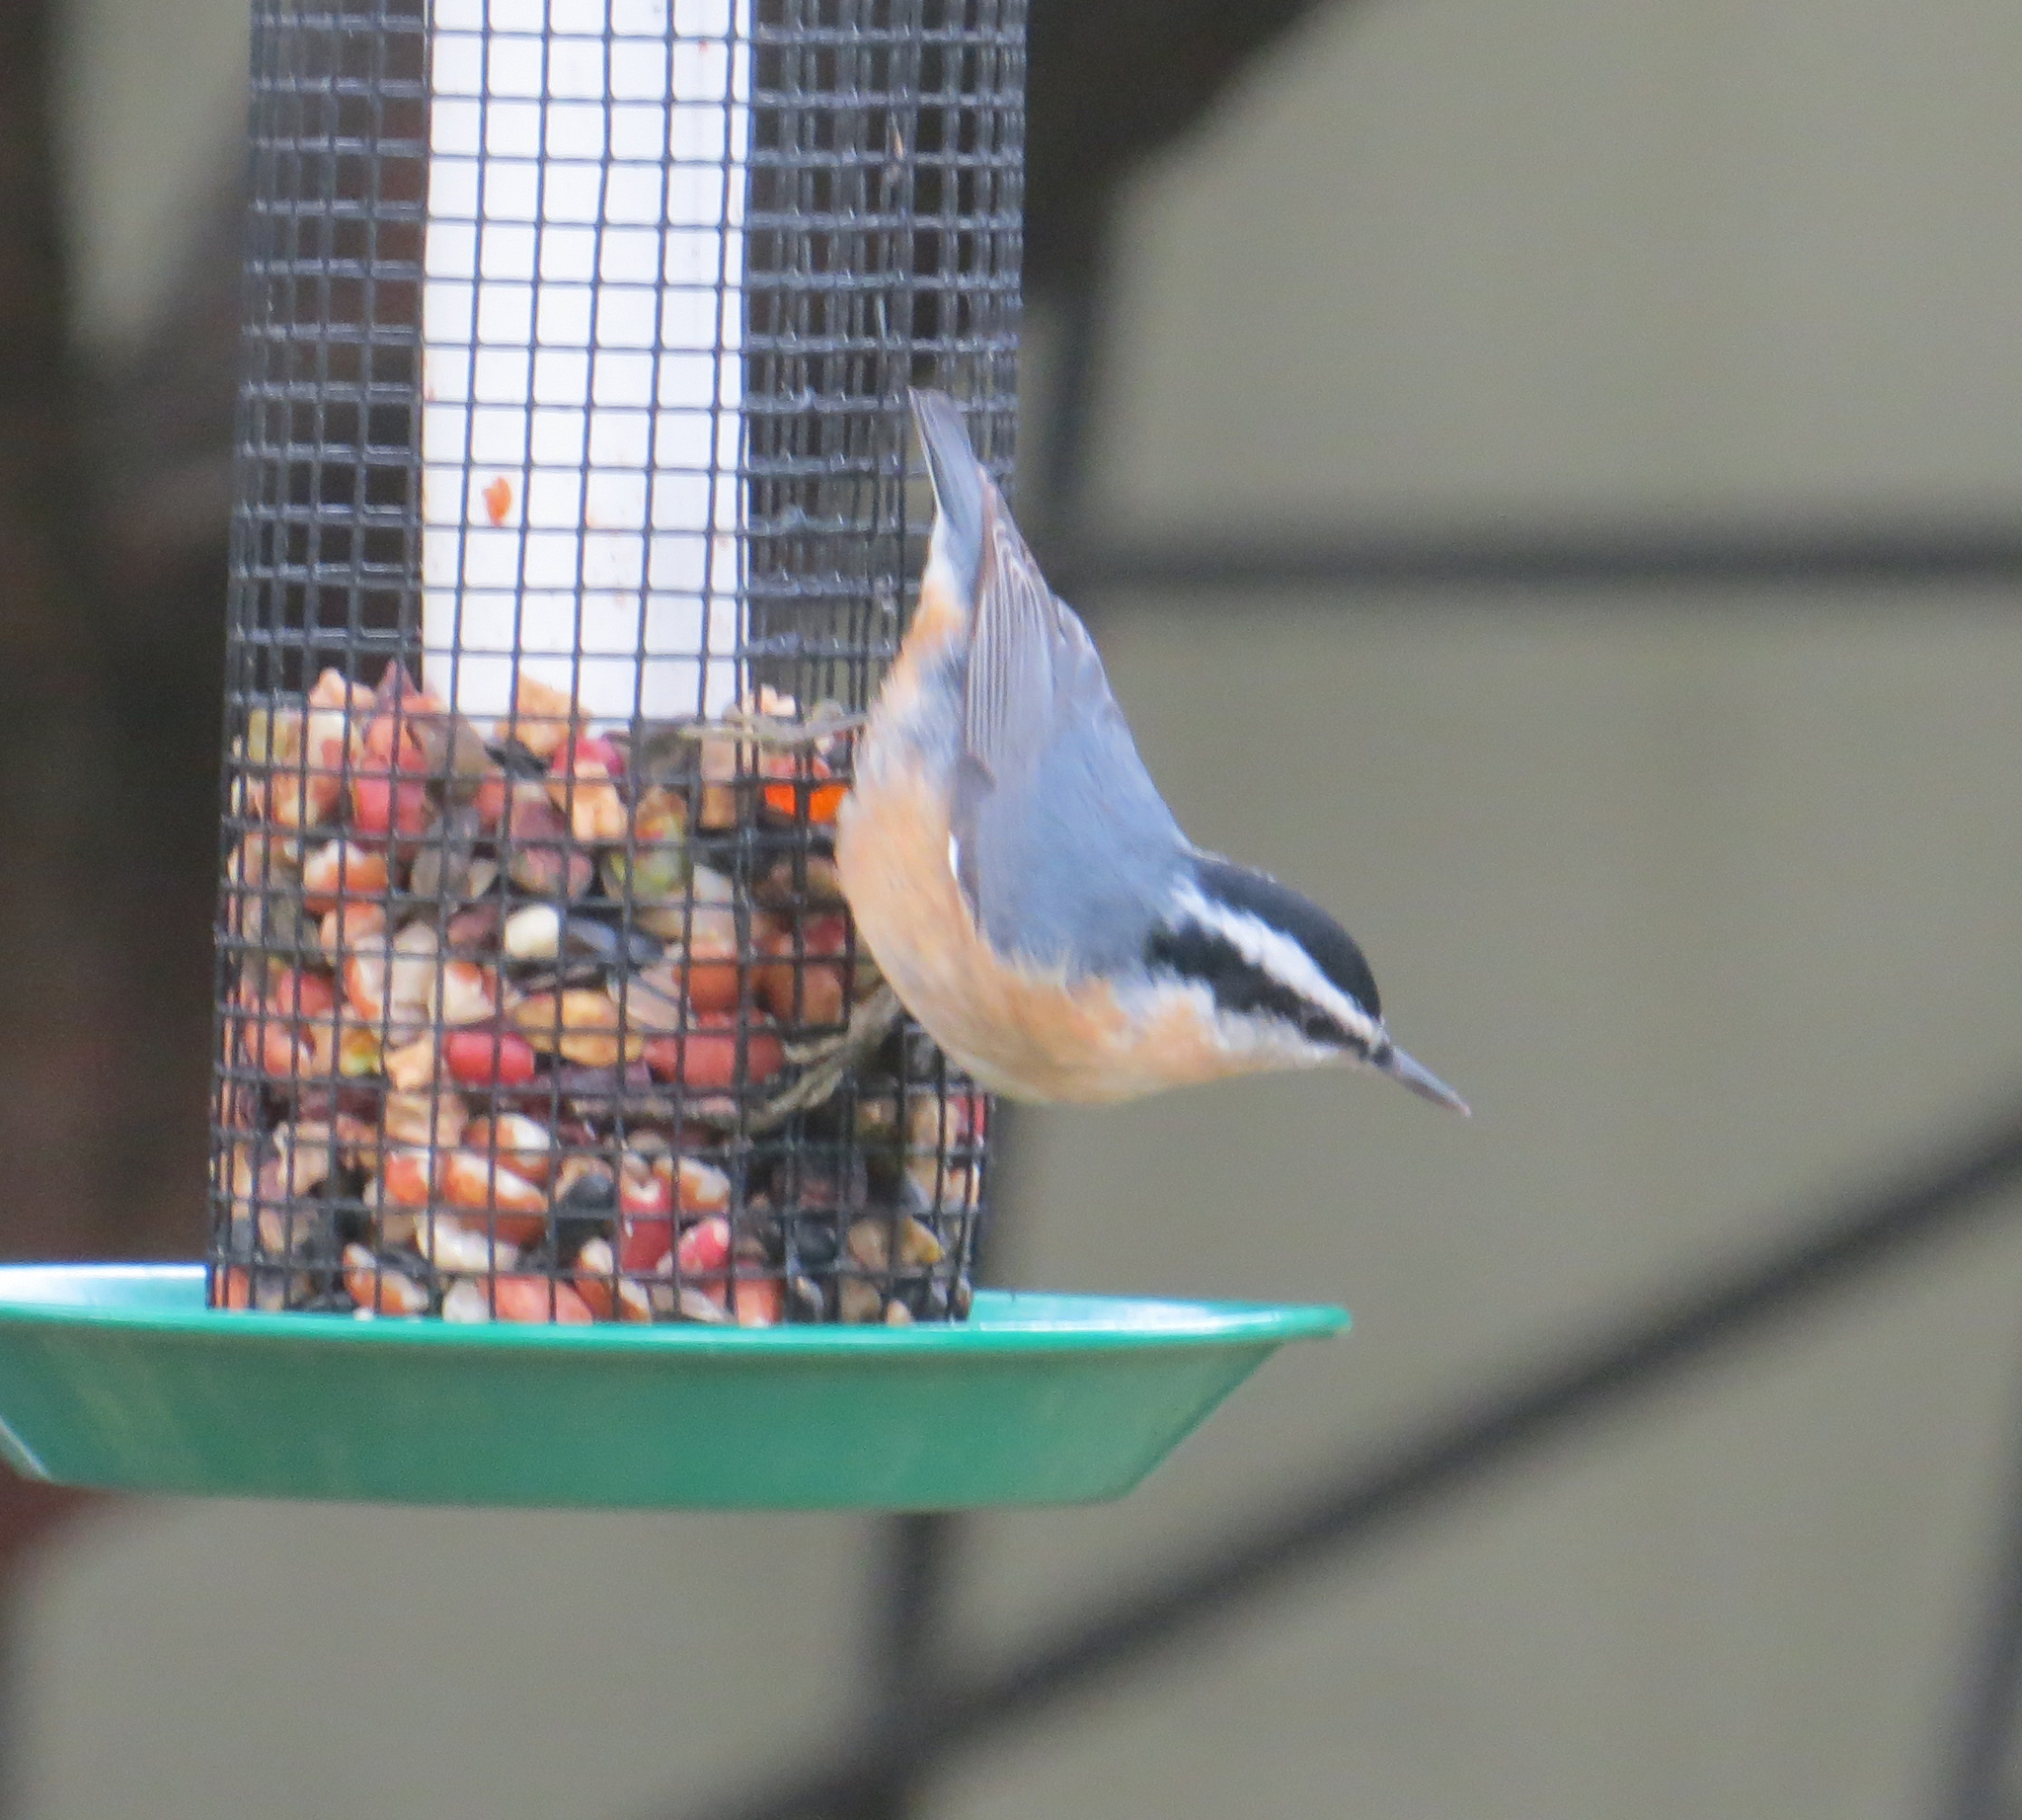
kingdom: Animalia
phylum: Chordata
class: Aves
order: Passeriformes
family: Sittidae
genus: Sitta
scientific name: Sitta canadensis
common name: Red-breasted nuthatch
